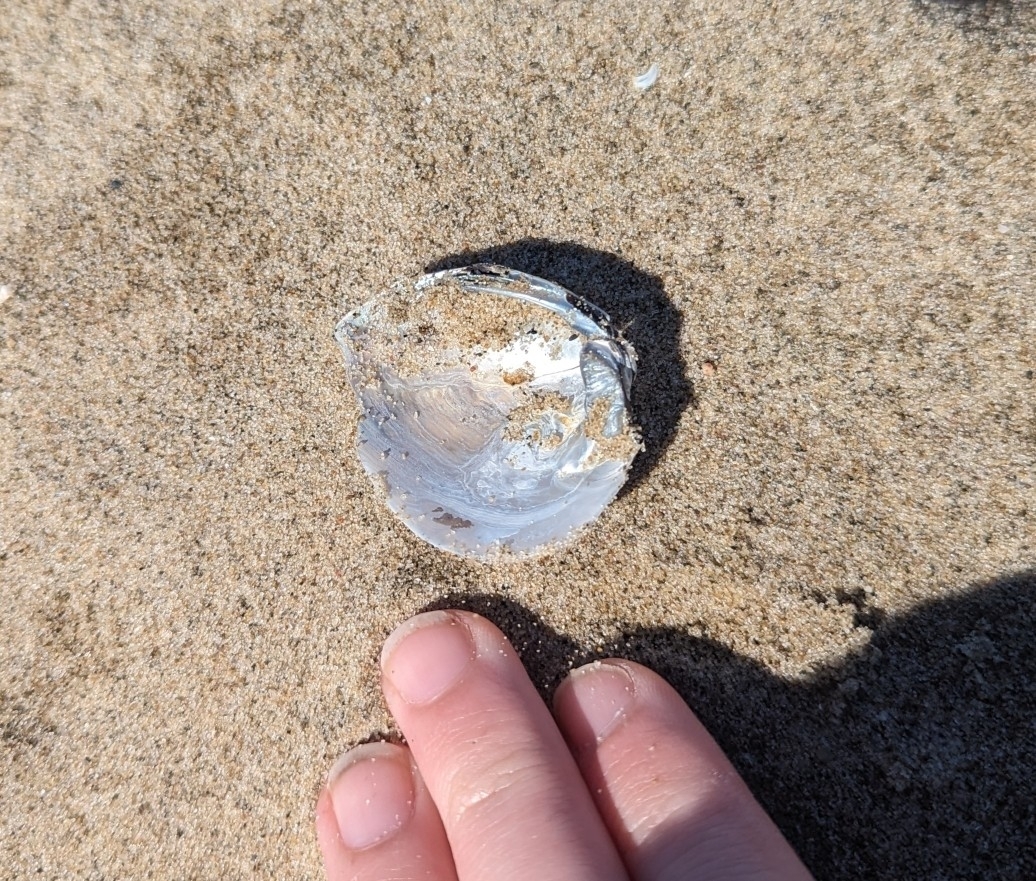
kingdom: Animalia
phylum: Mollusca
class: Bivalvia
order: Unionida
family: Unionidae
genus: Fusconaia
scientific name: Fusconaia flava
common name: Wabash pigtoe
